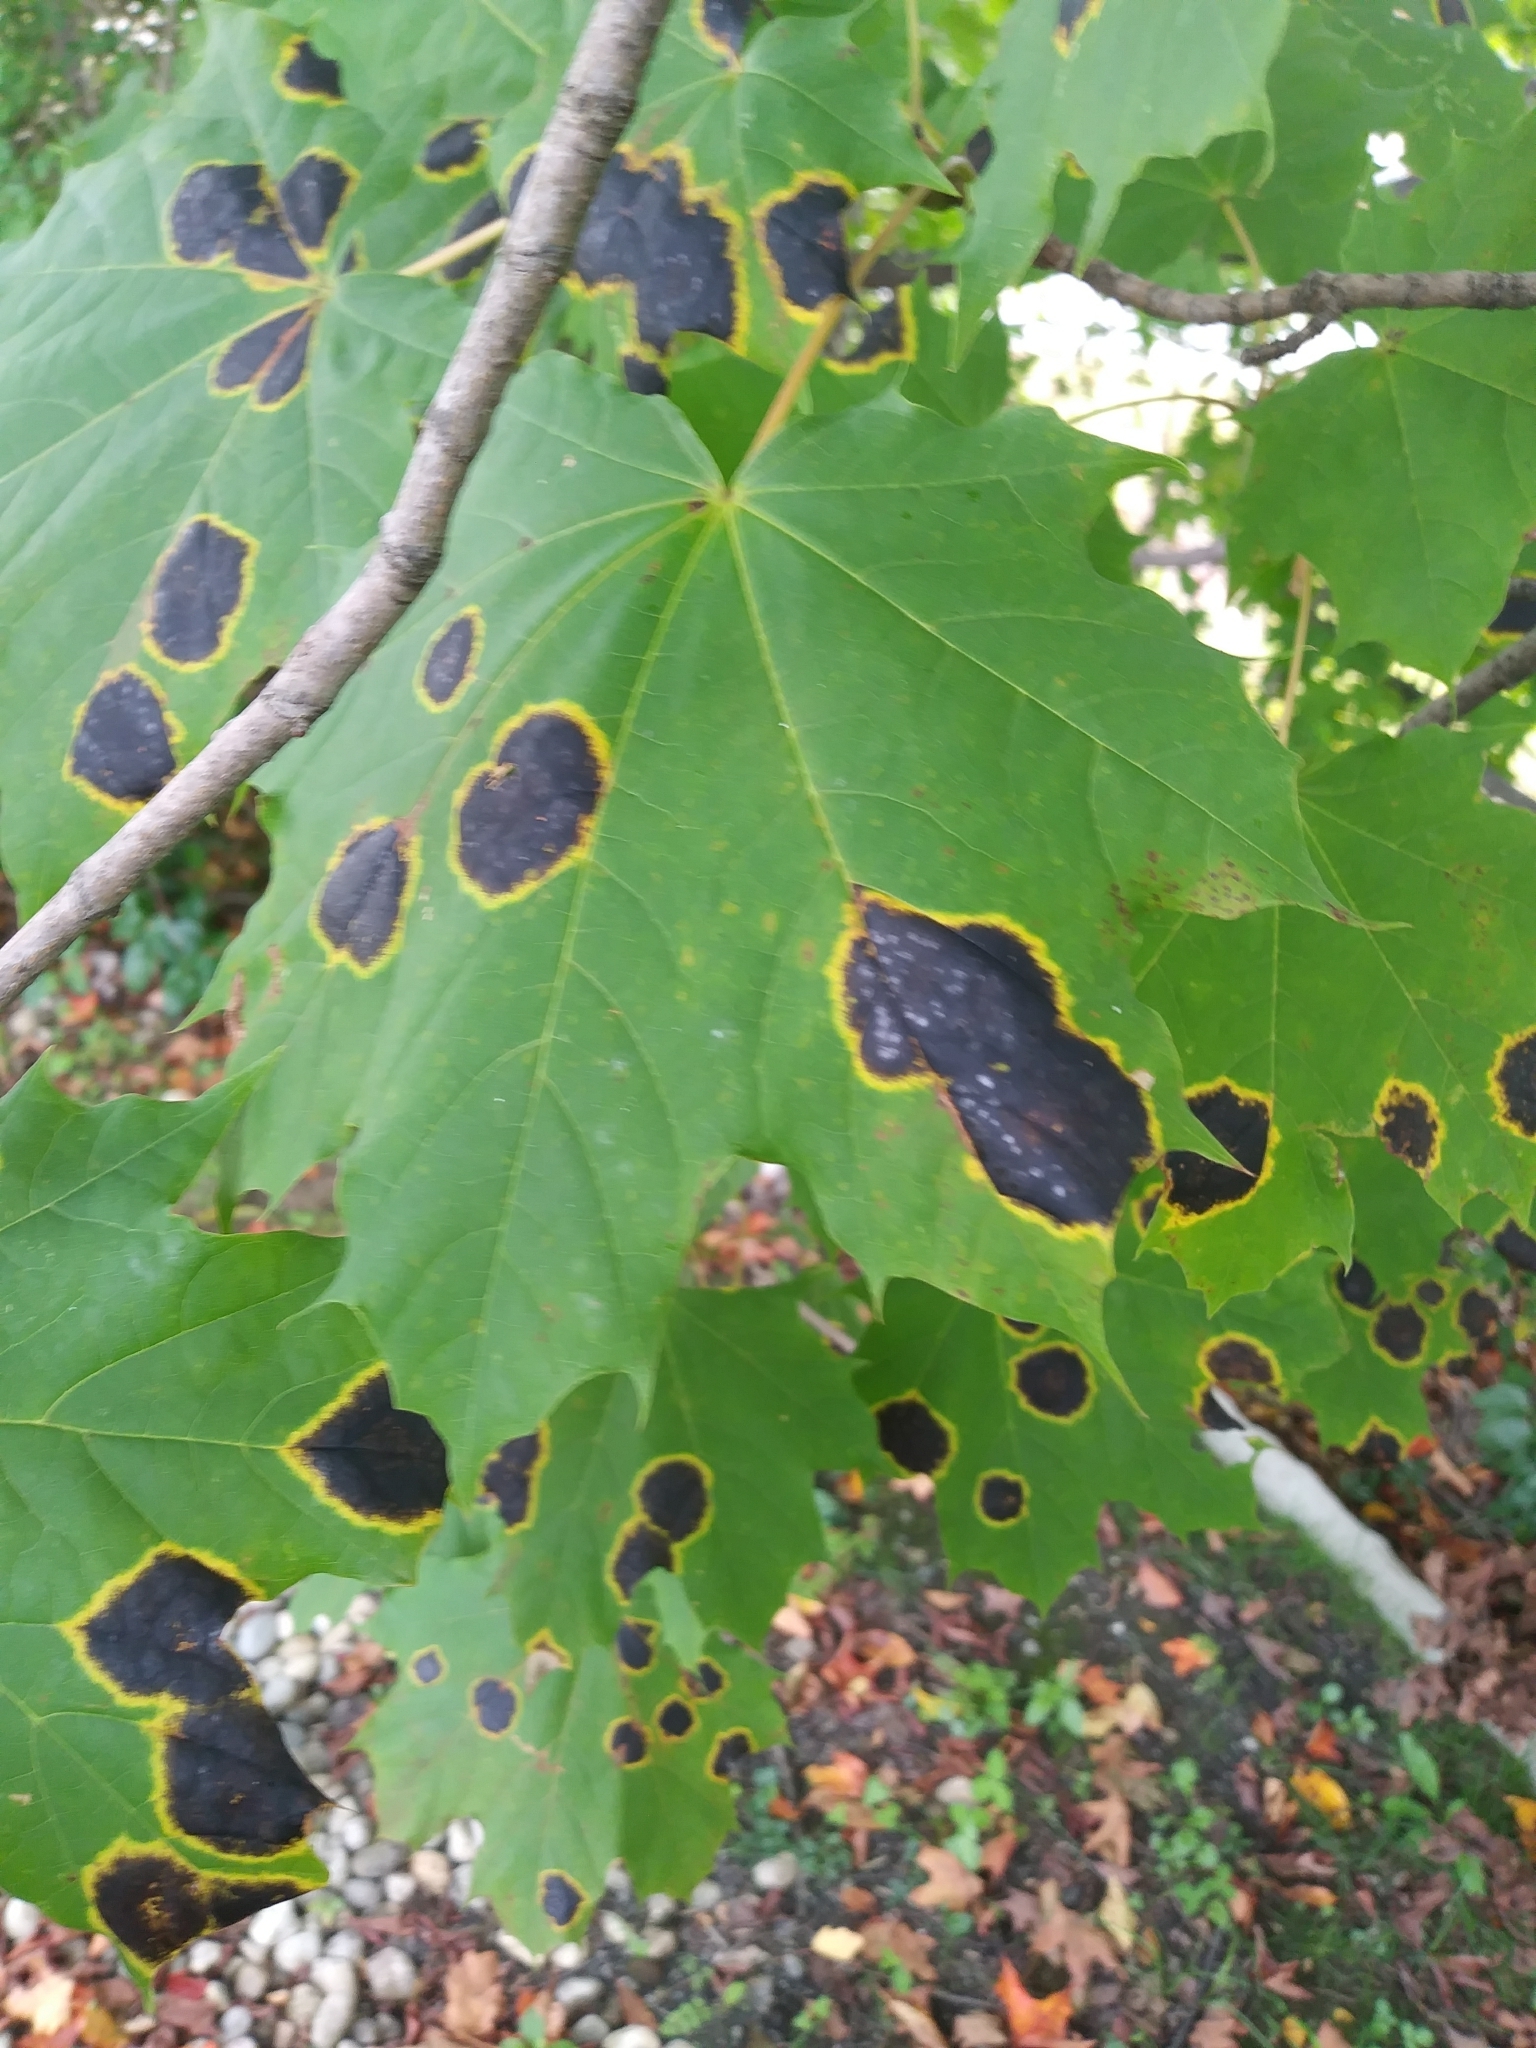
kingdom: Fungi
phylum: Ascomycota
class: Leotiomycetes
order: Rhytismatales
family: Rhytismataceae
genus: Rhytisma
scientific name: Rhytisma acerinum
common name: European tar spot
